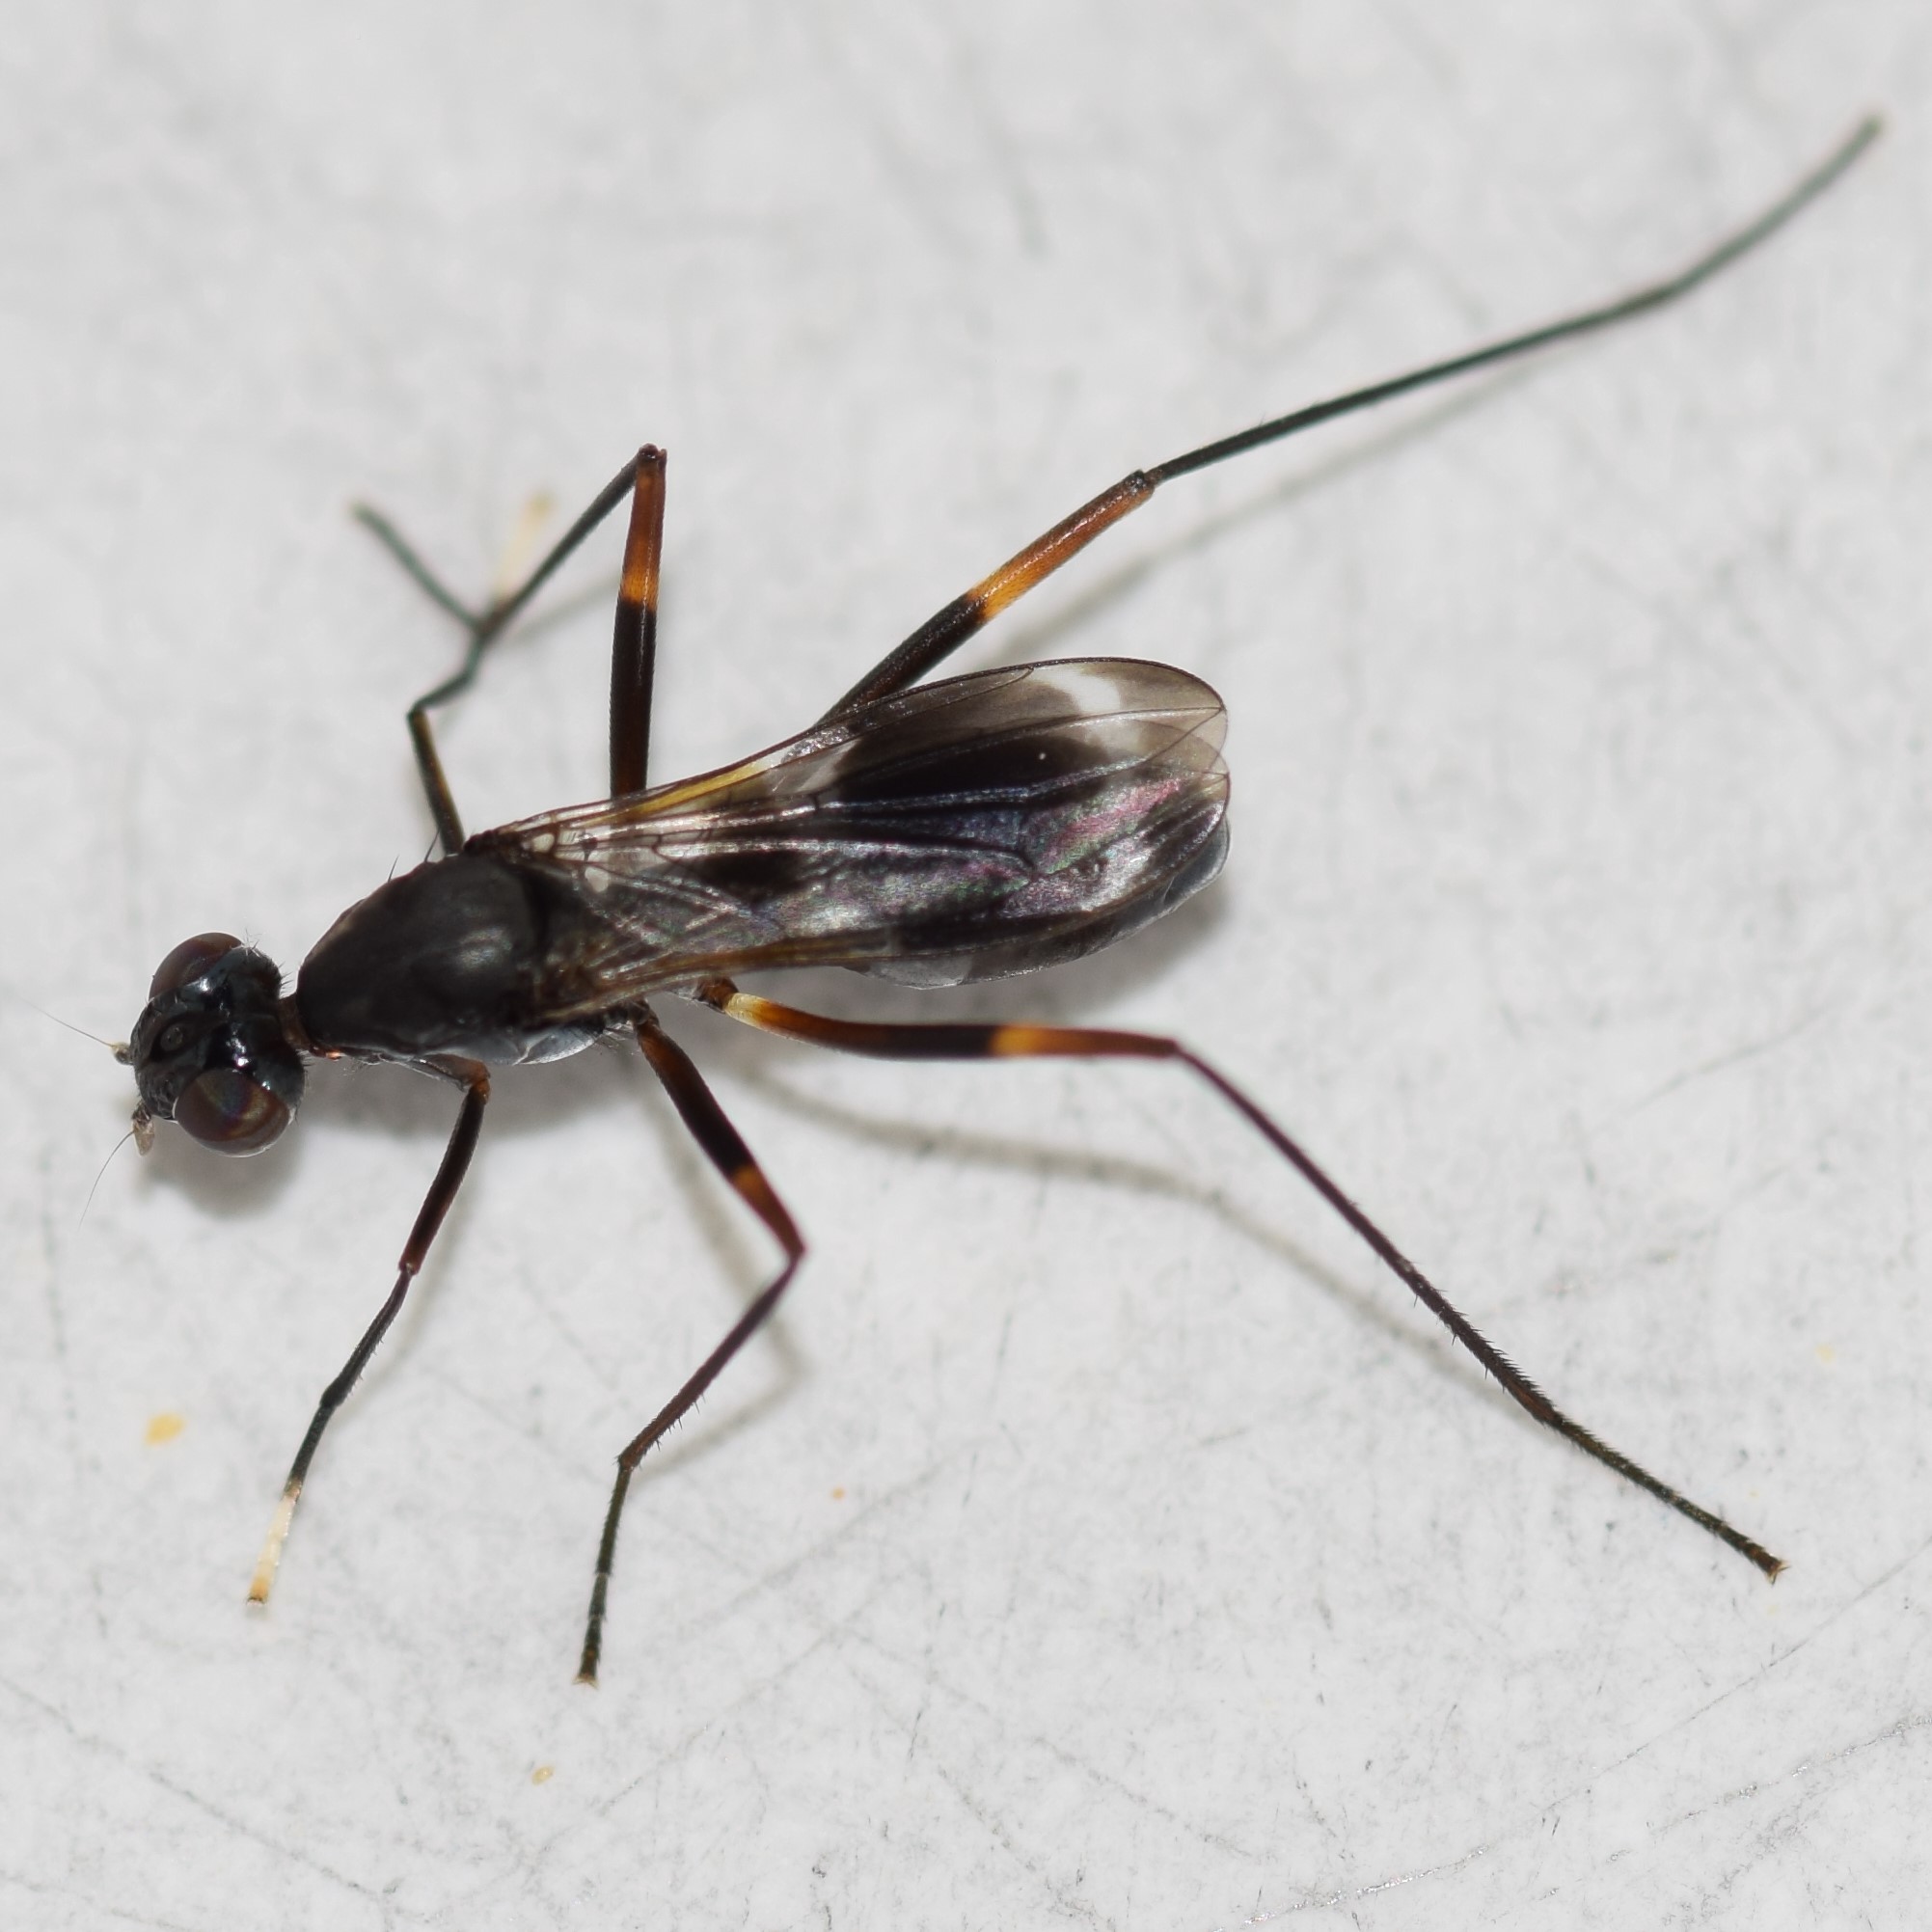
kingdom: Animalia
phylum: Arthropoda
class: Insecta
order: Diptera
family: Micropezidae
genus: Taeniaptera
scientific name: Taeniaptera trivittata
